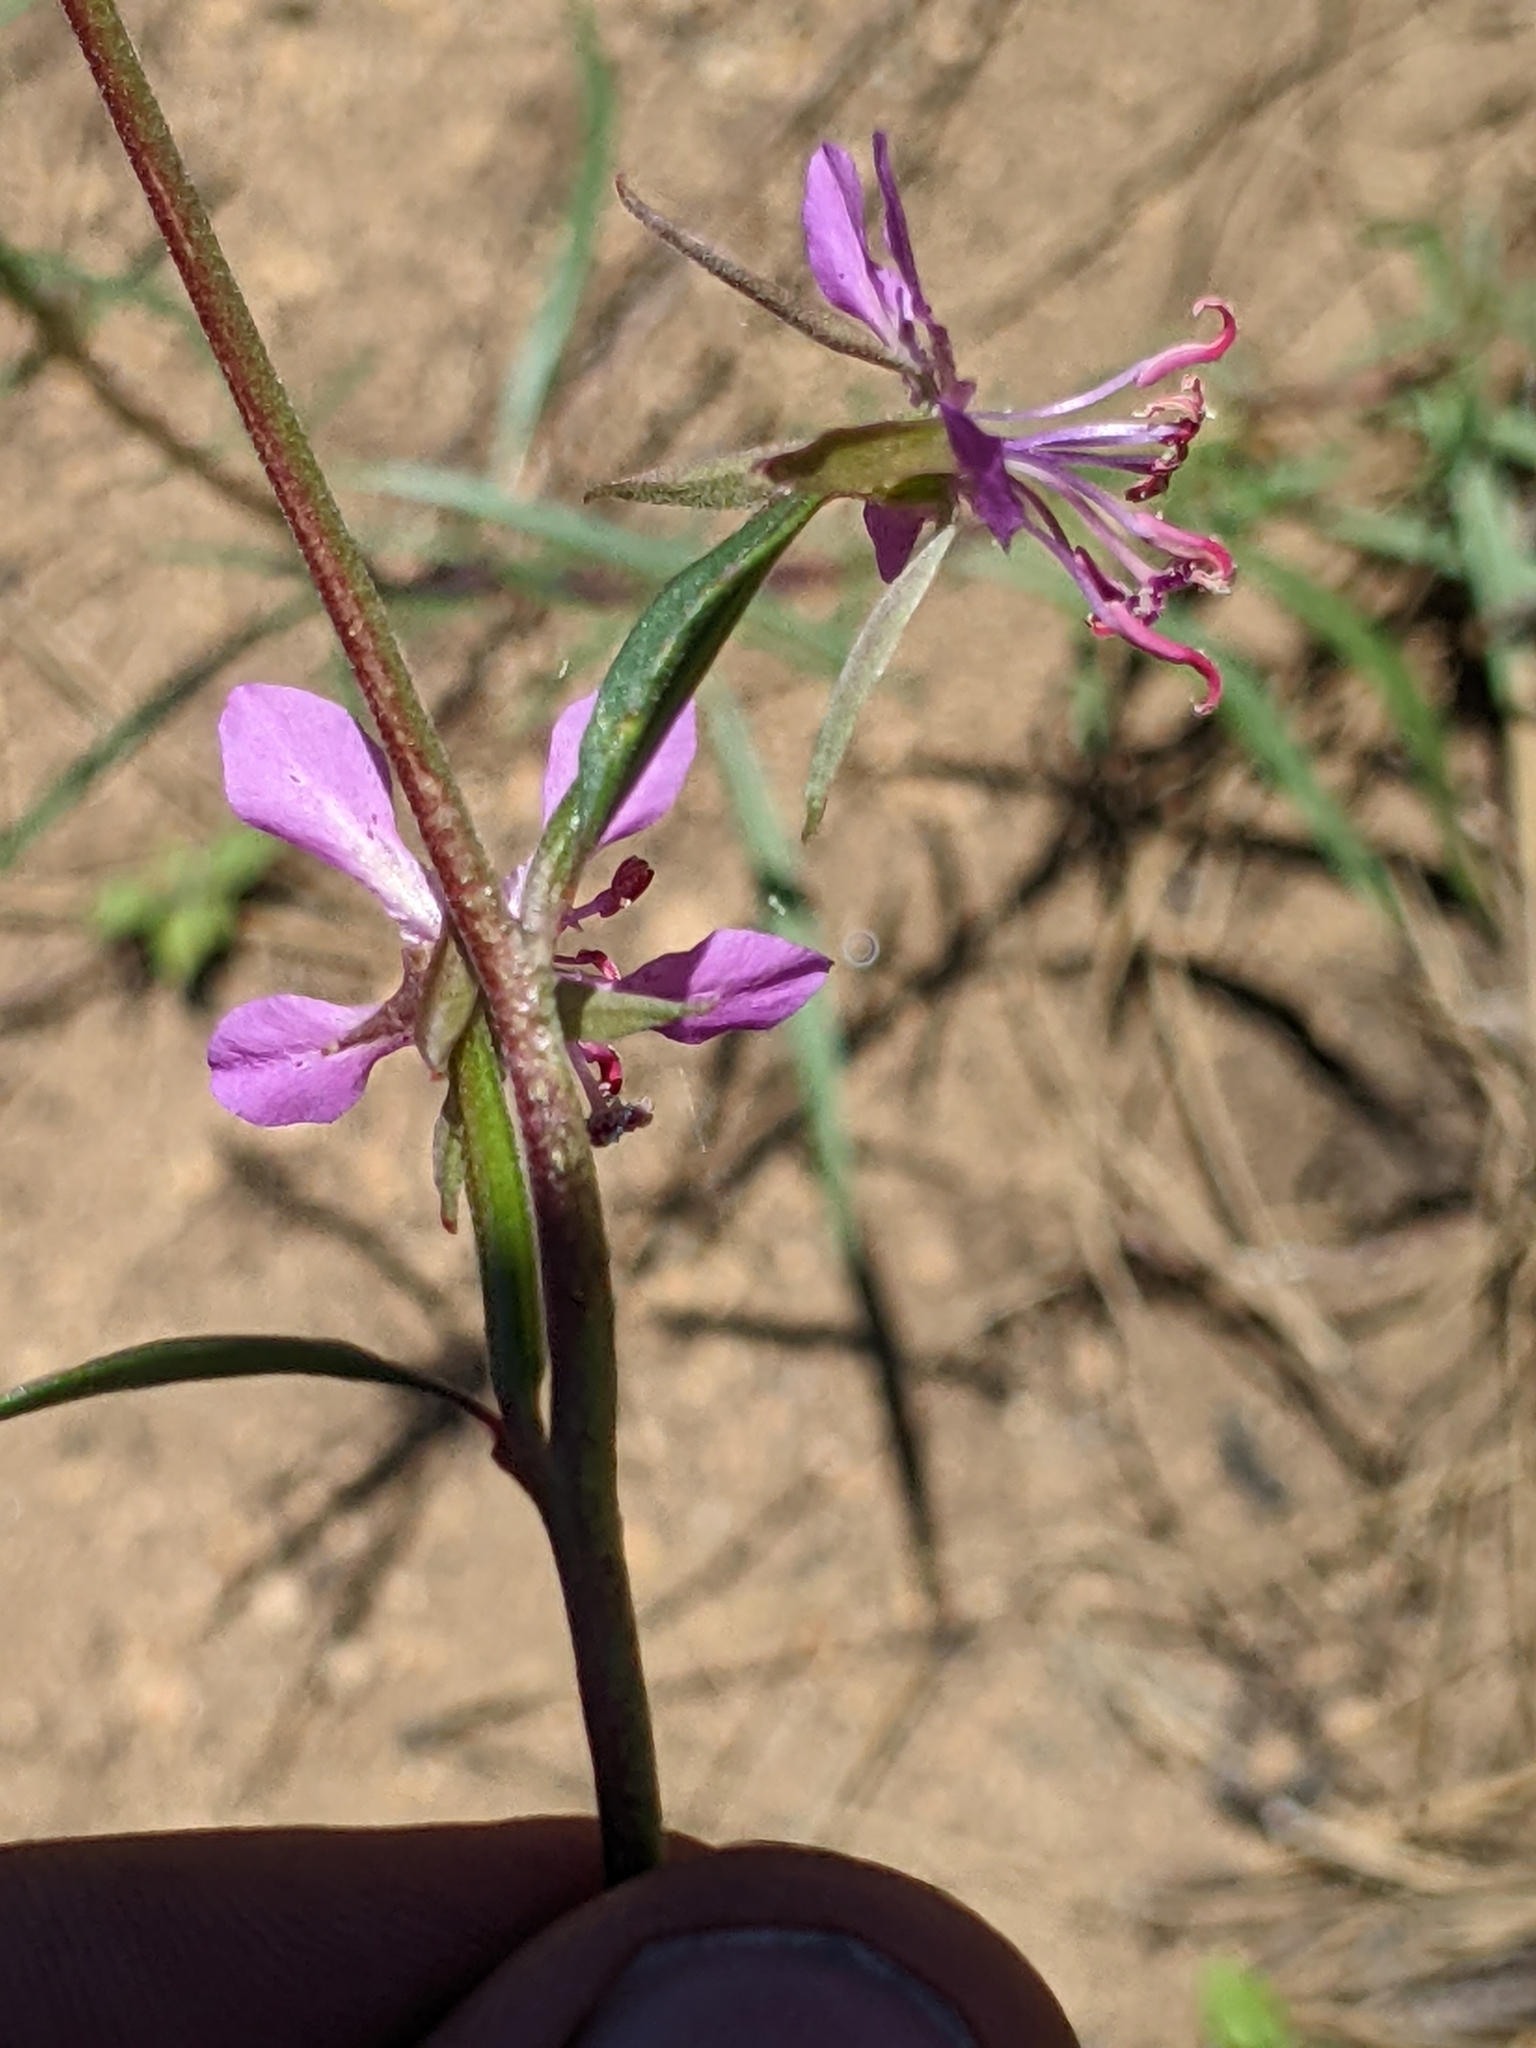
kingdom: Plantae
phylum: Tracheophyta
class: Magnoliopsida
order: Myrtales
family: Onagraceae
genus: Clarkia
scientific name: Clarkia rhomboidea
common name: Broadleaf clarkia
